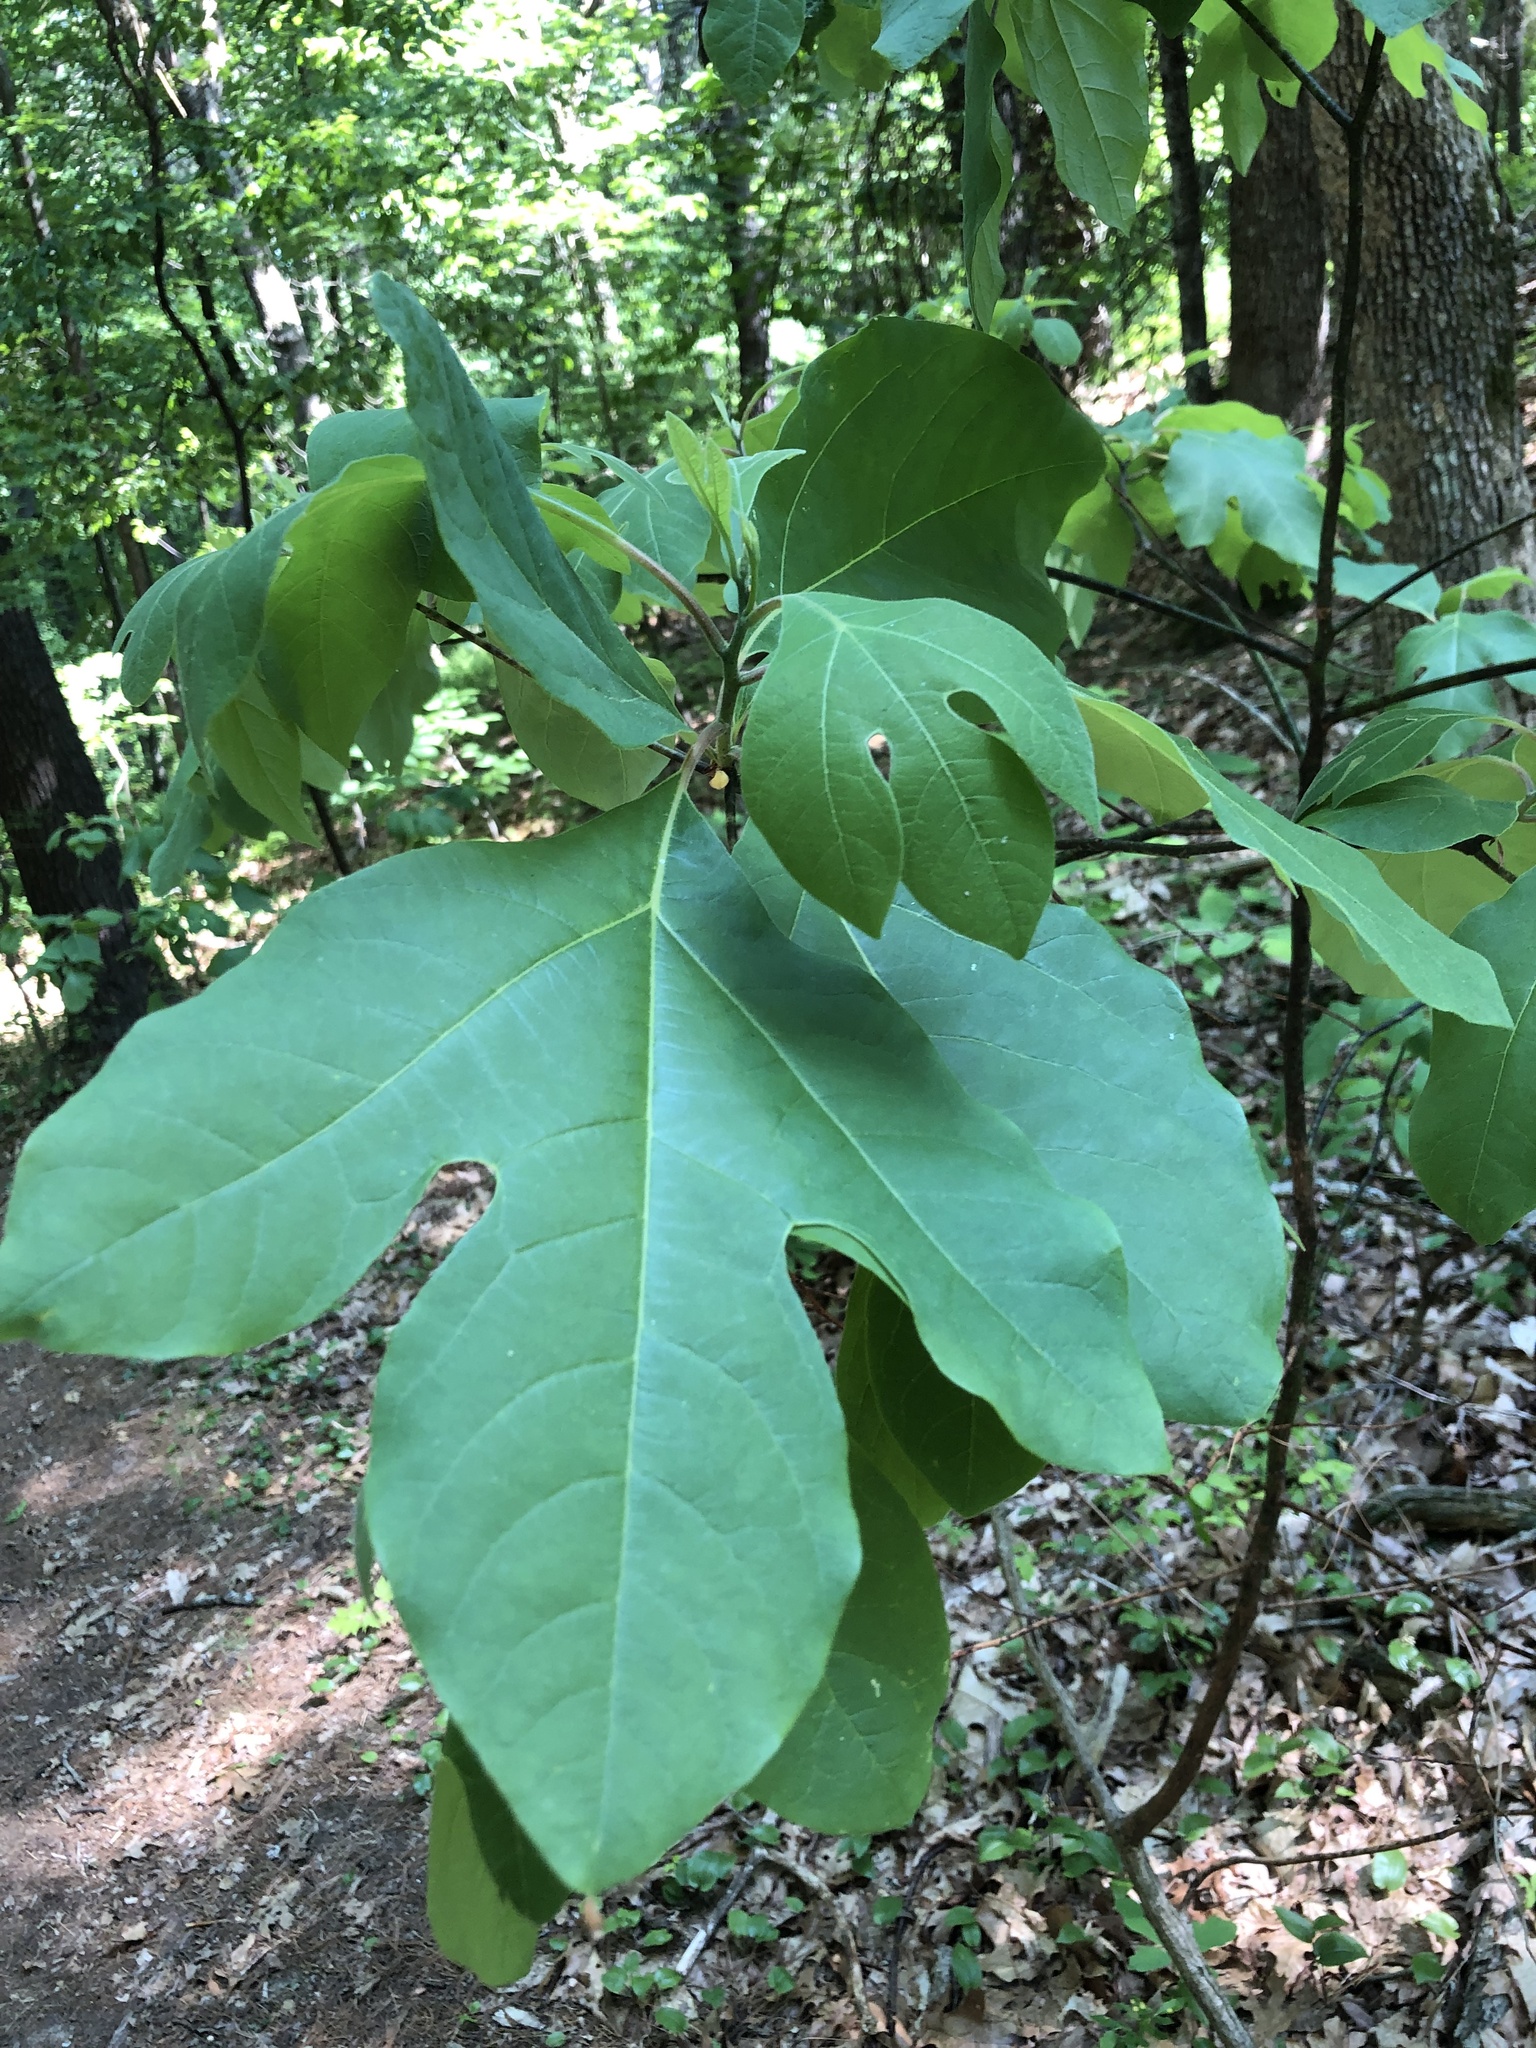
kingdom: Plantae
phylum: Tracheophyta
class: Magnoliopsida
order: Laurales
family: Lauraceae
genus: Sassafras
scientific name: Sassafras albidum
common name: Sassafras
